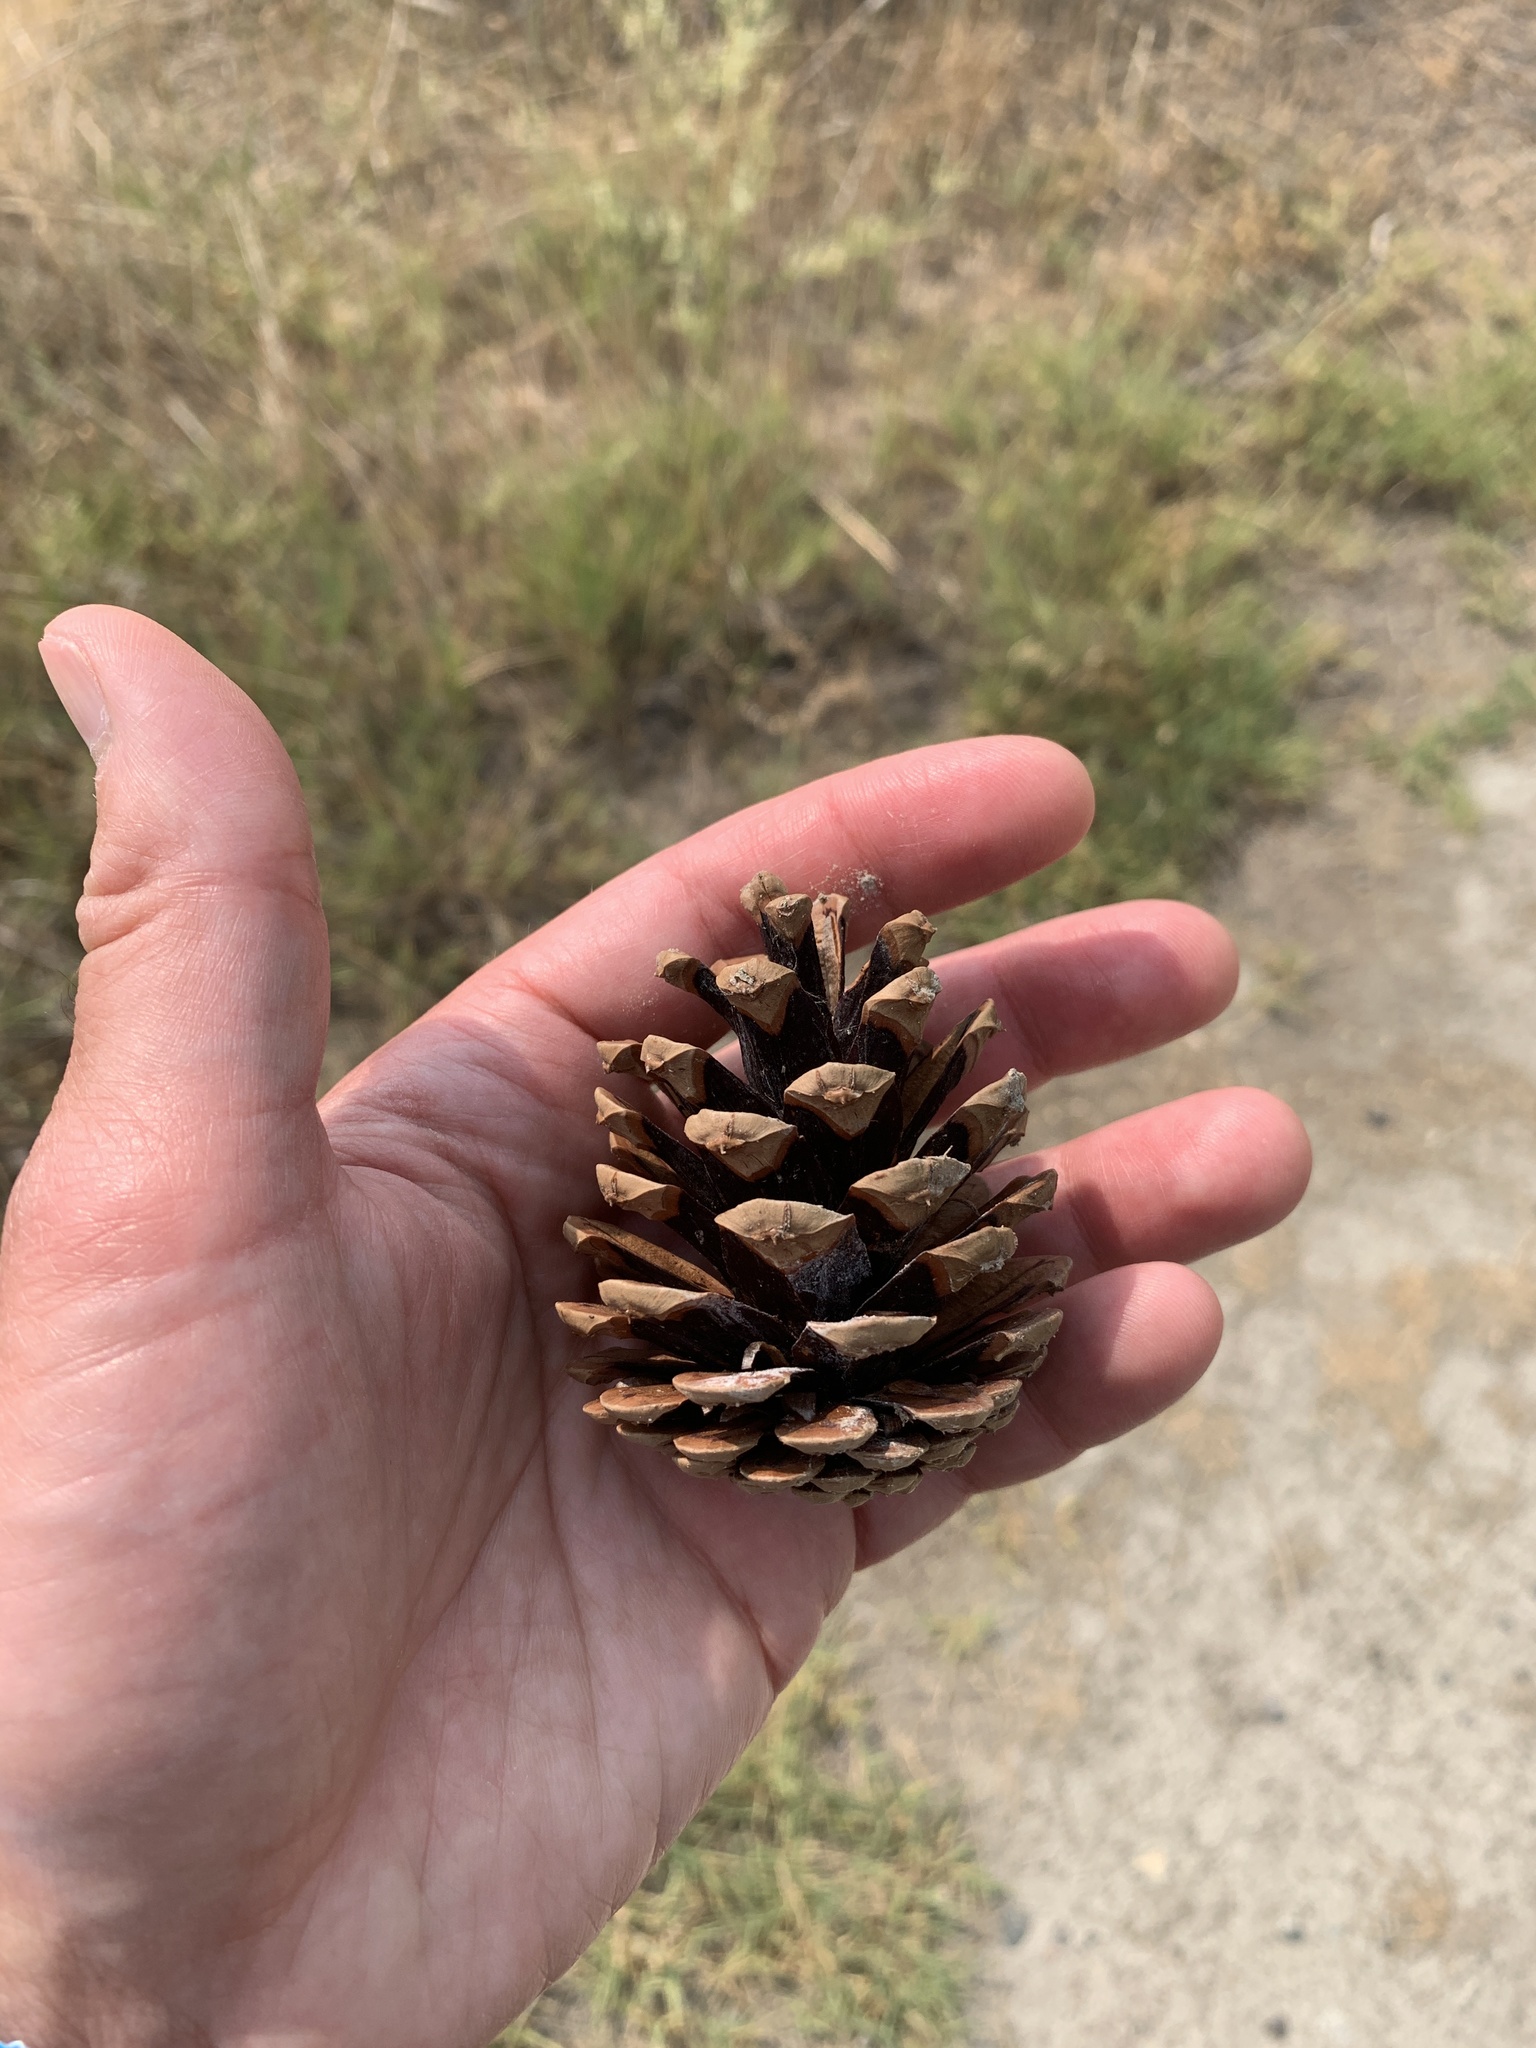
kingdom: Plantae
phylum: Tracheophyta
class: Pinopsida
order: Pinales
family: Pinaceae
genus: Pinus
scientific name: Pinus ponderosa
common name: Western yellow-pine
